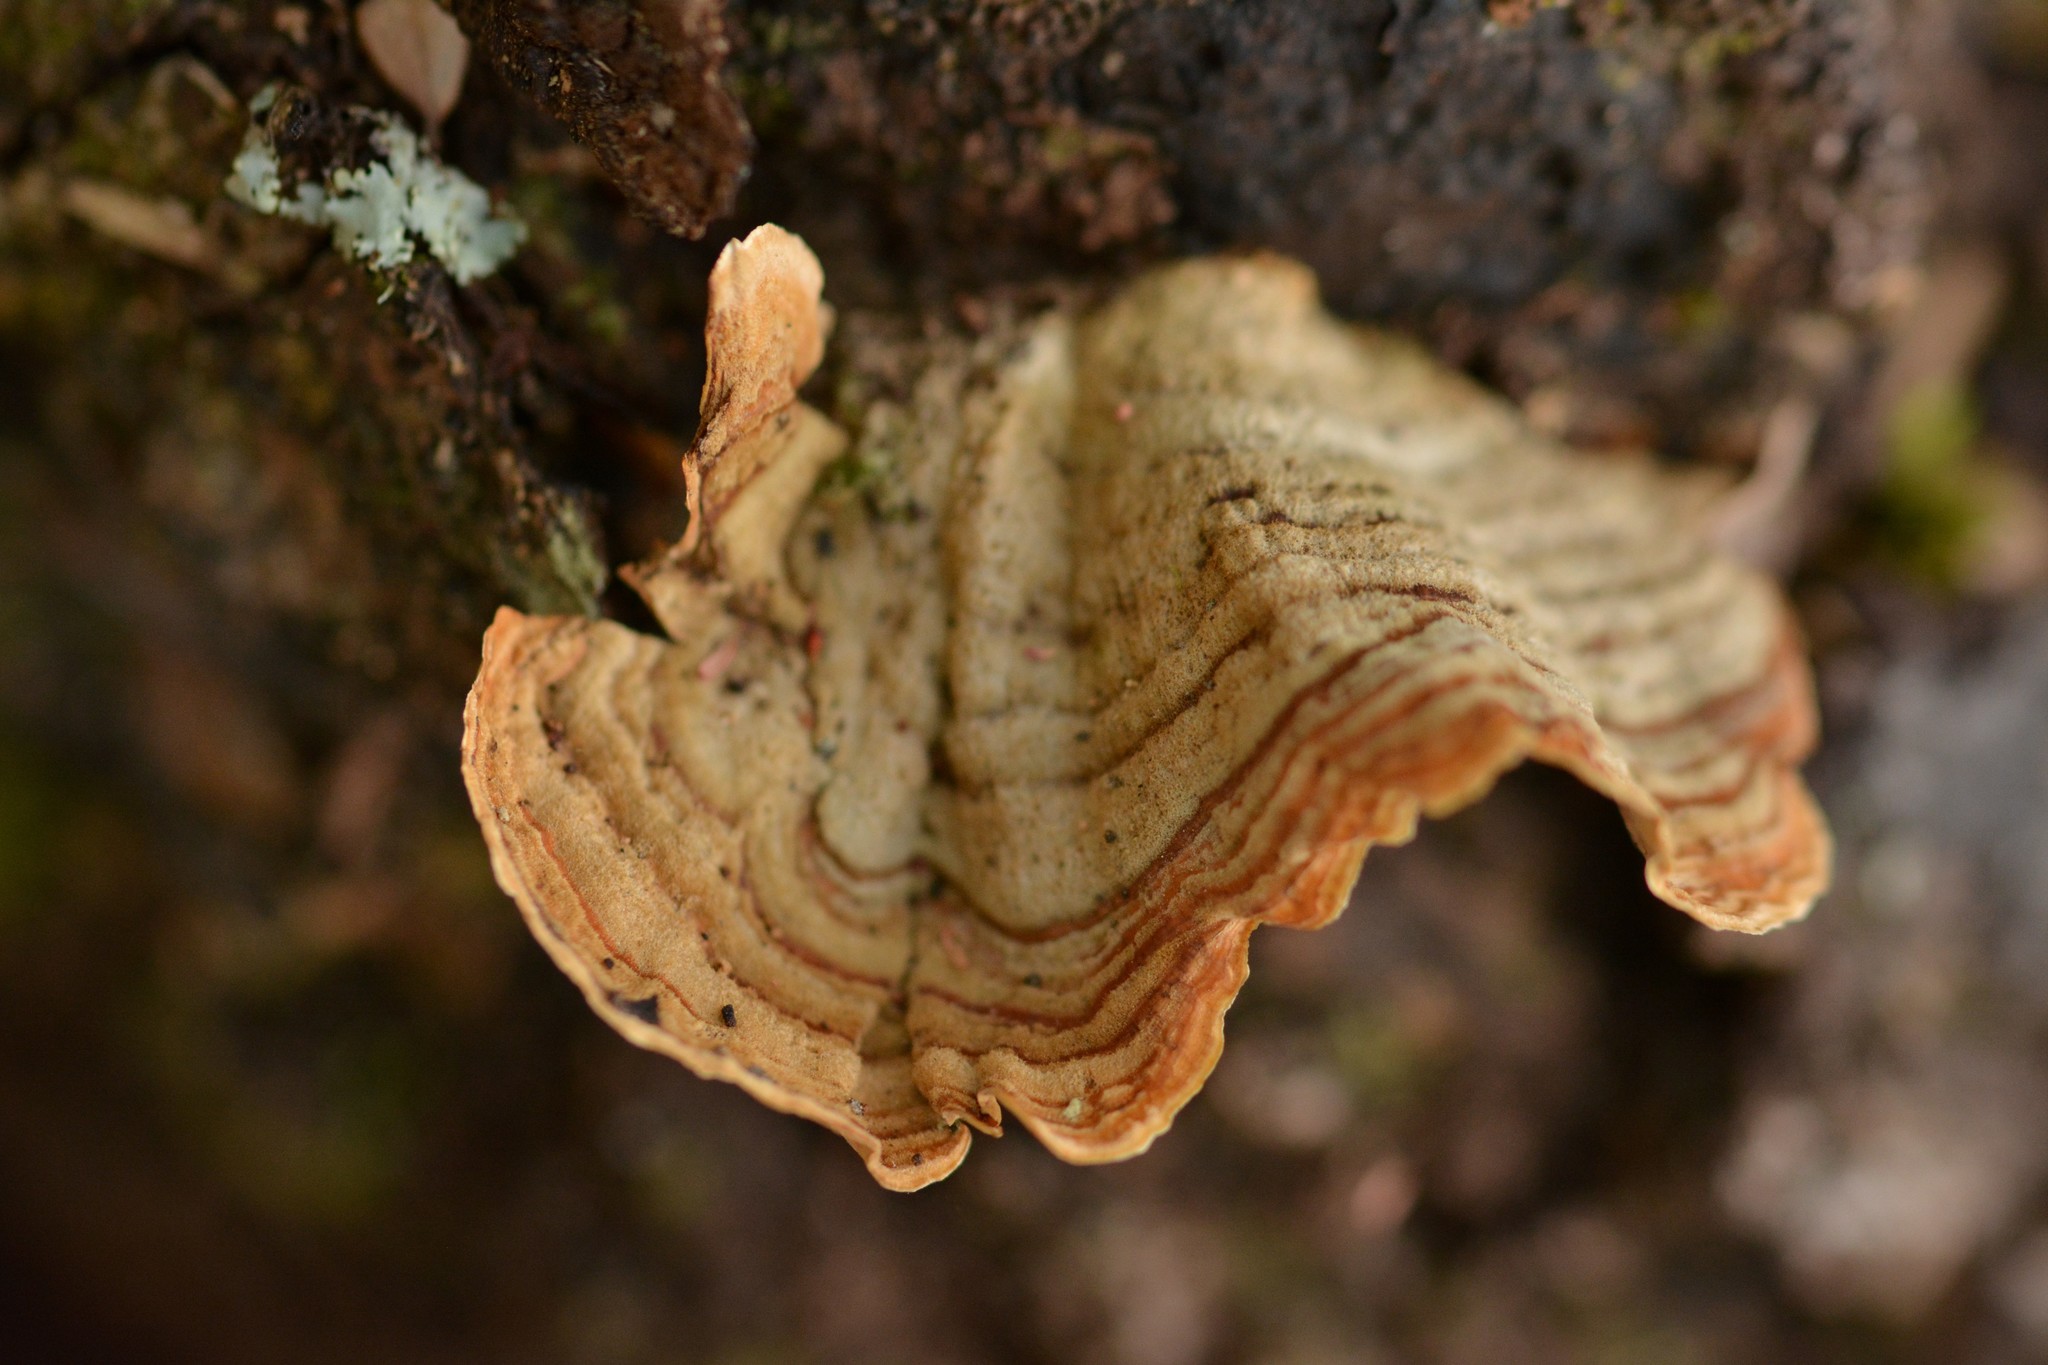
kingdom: Fungi
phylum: Basidiomycota
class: Agaricomycetes
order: Russulales
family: Stereaceae
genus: Stereum
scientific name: Stereum versicolor
